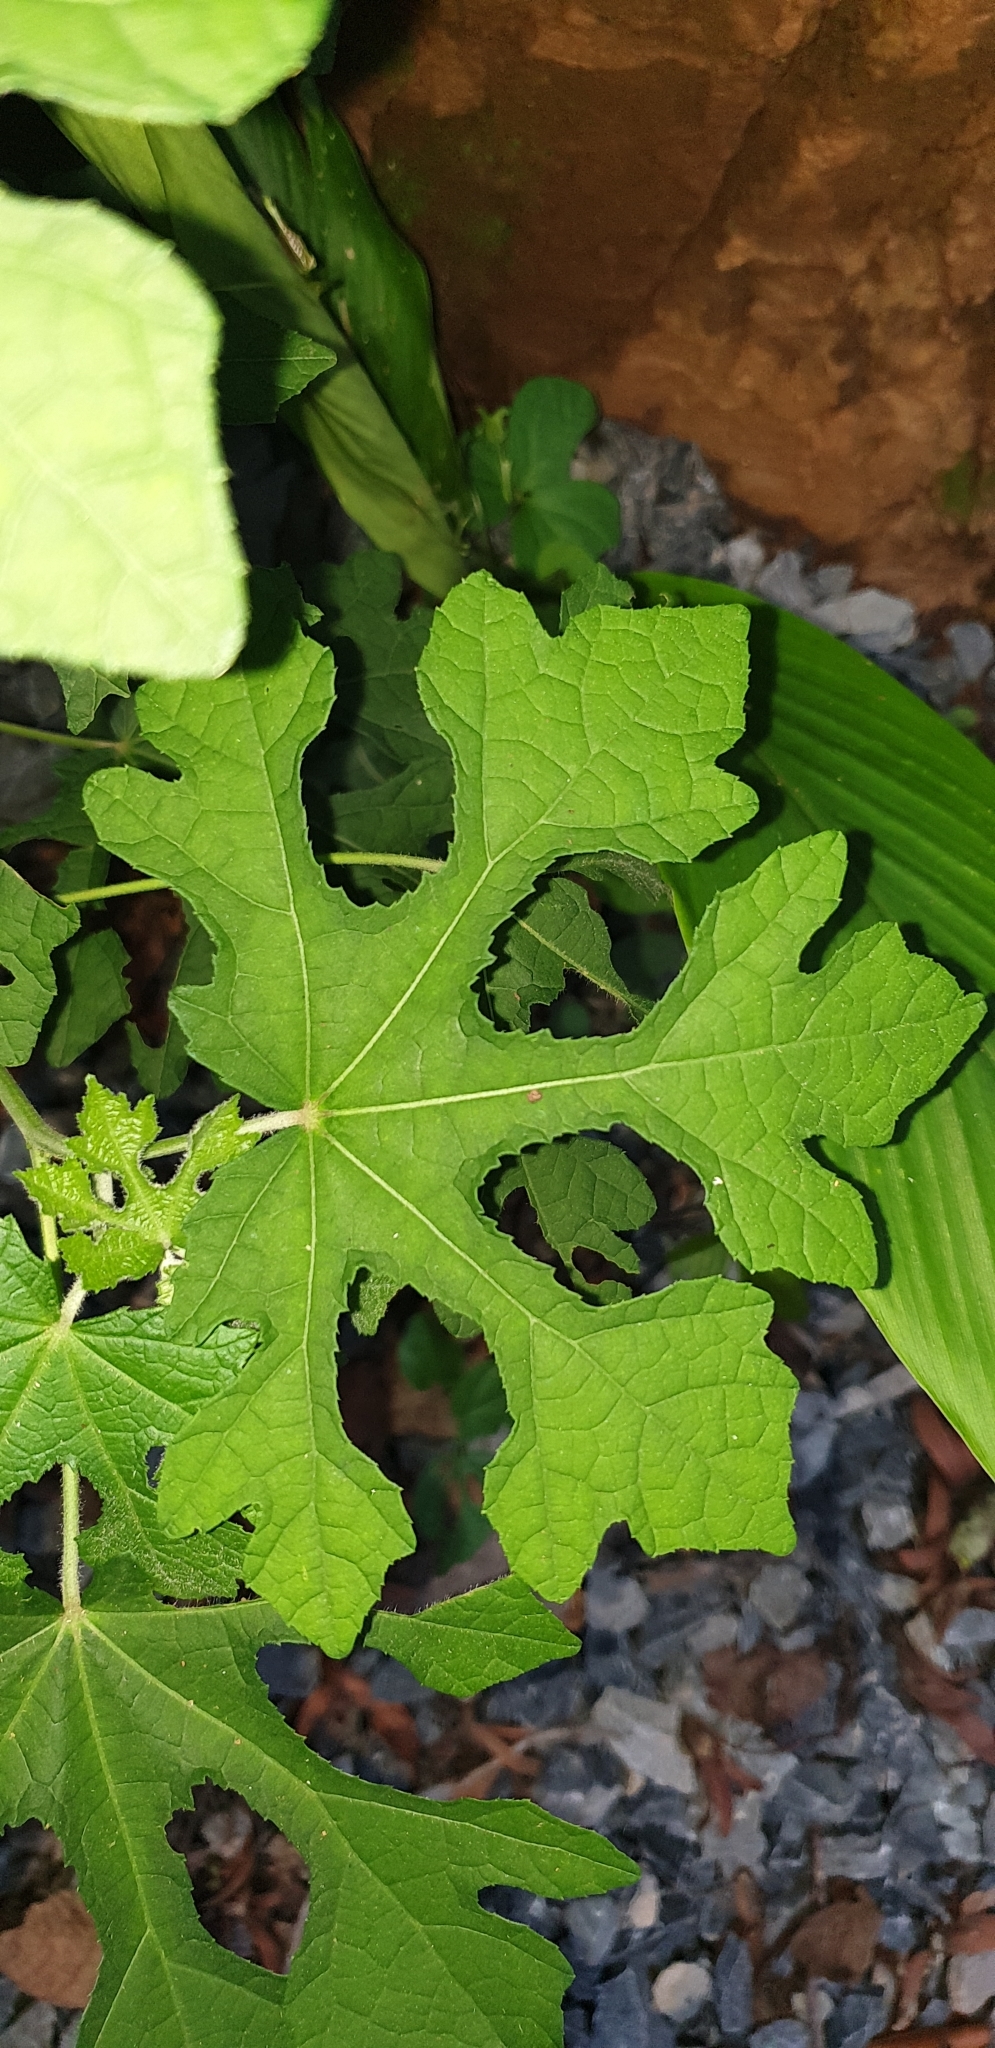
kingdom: Plantae
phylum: Tracheophyta
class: Magnoliopsida
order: Malvales
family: Malvaceae
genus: Urena
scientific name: Urena procumbens
